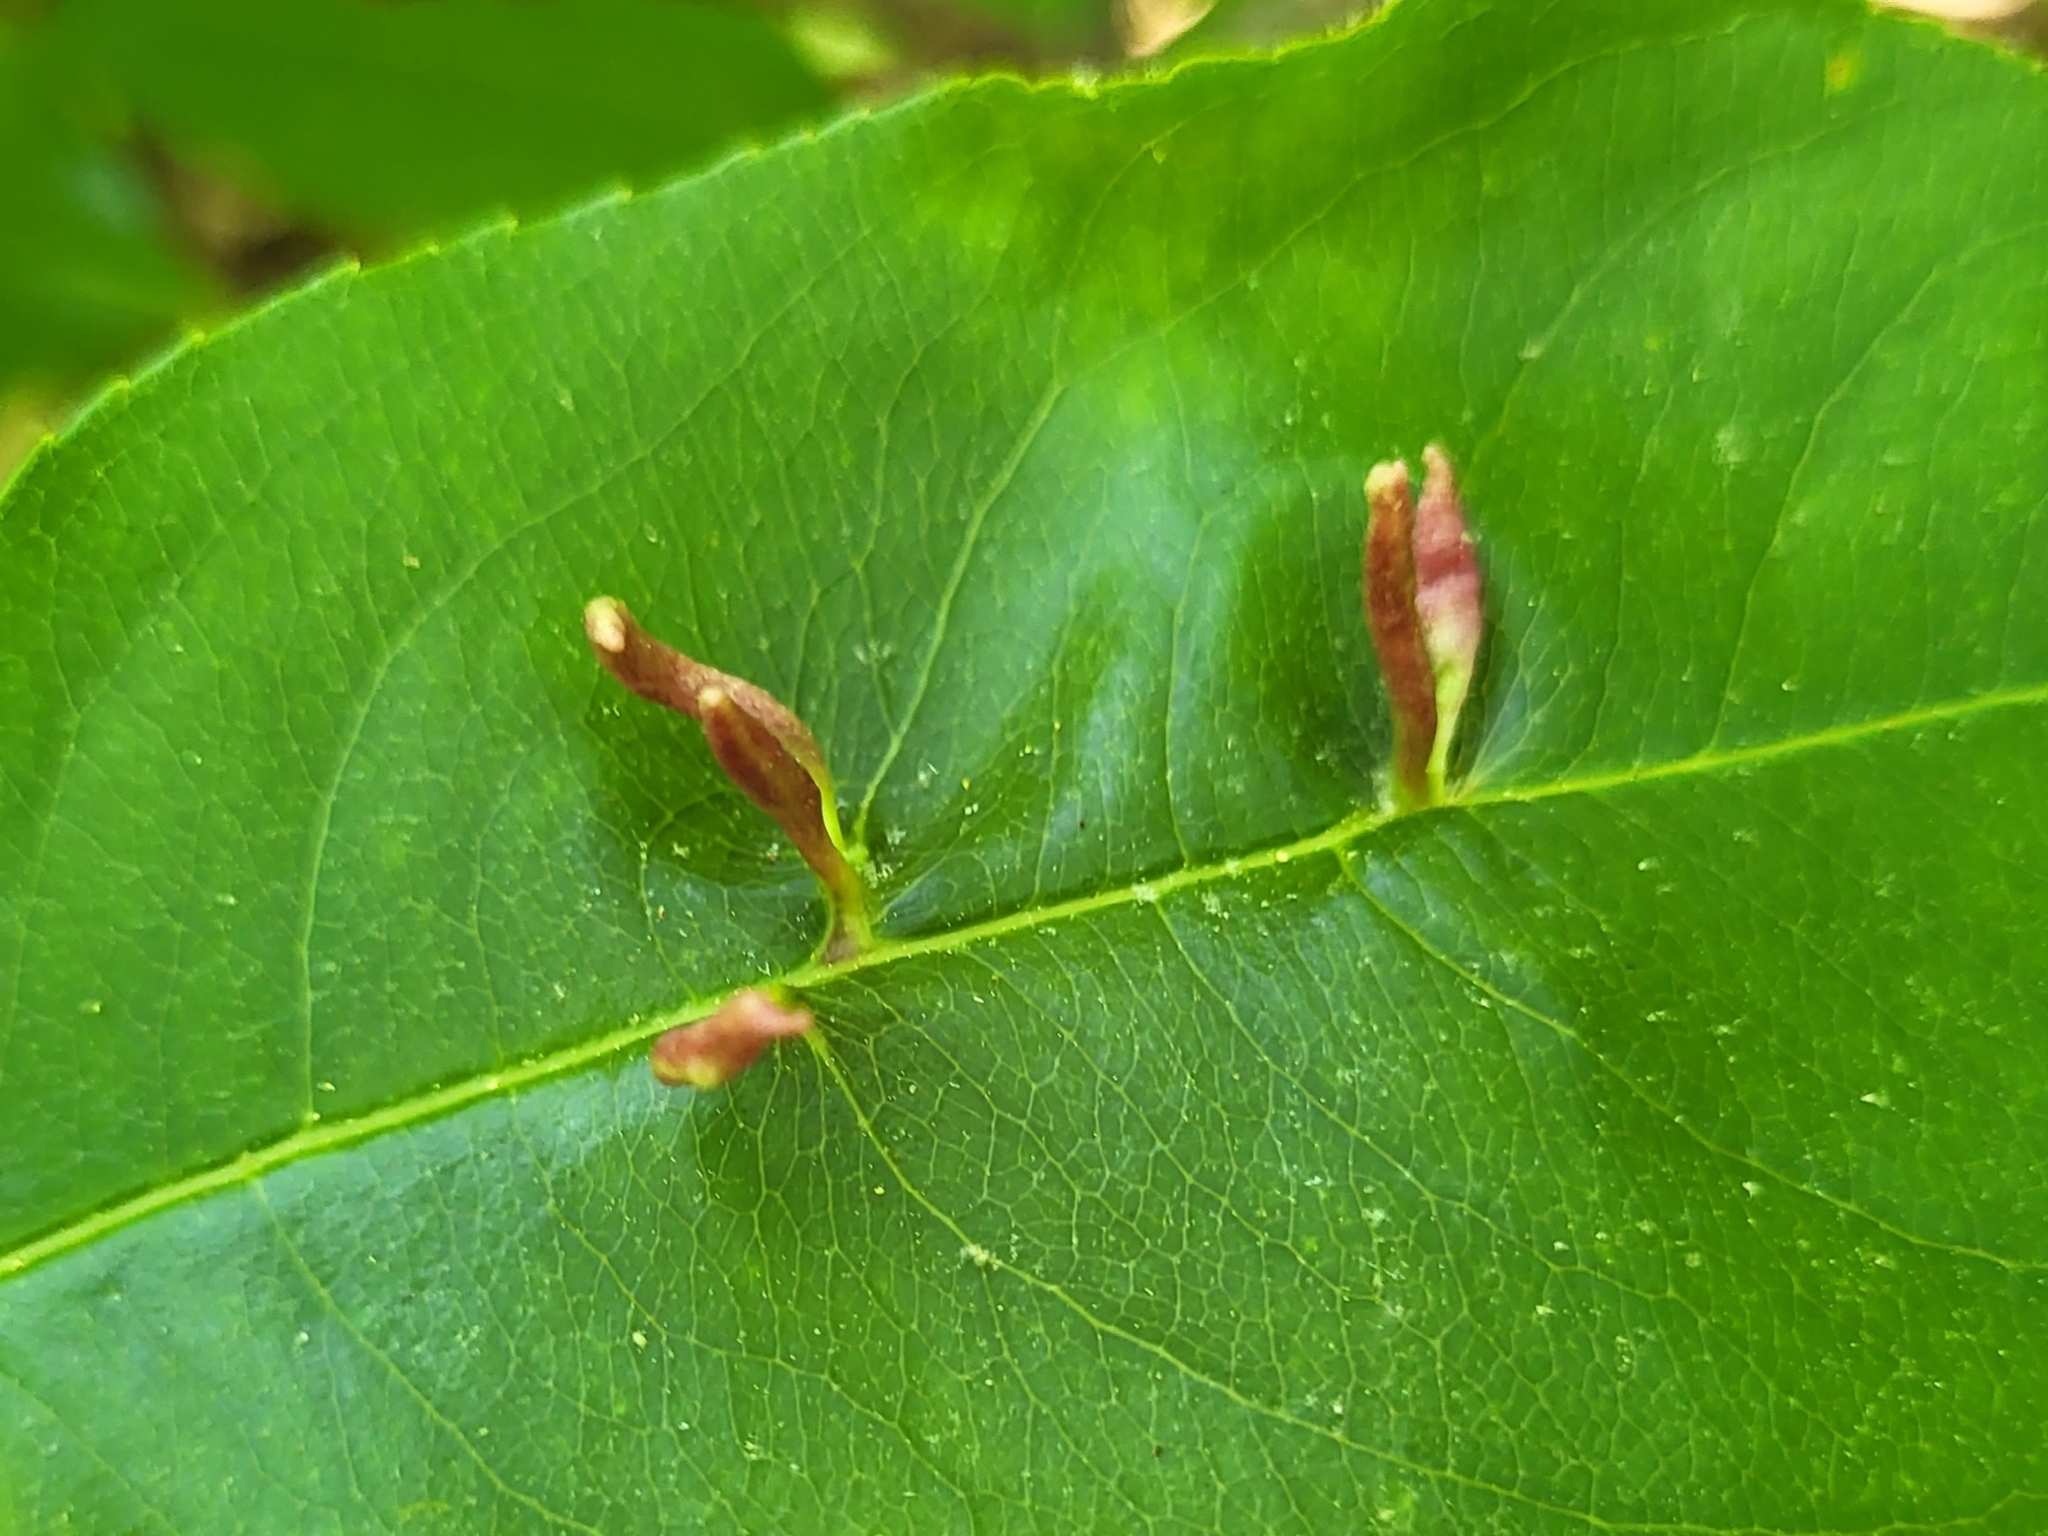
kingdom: Animalia
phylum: Arthropoda
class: Arachnida
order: Trombidiformes
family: Eriophyidae
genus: Eriophyes
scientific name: Eriophyes
